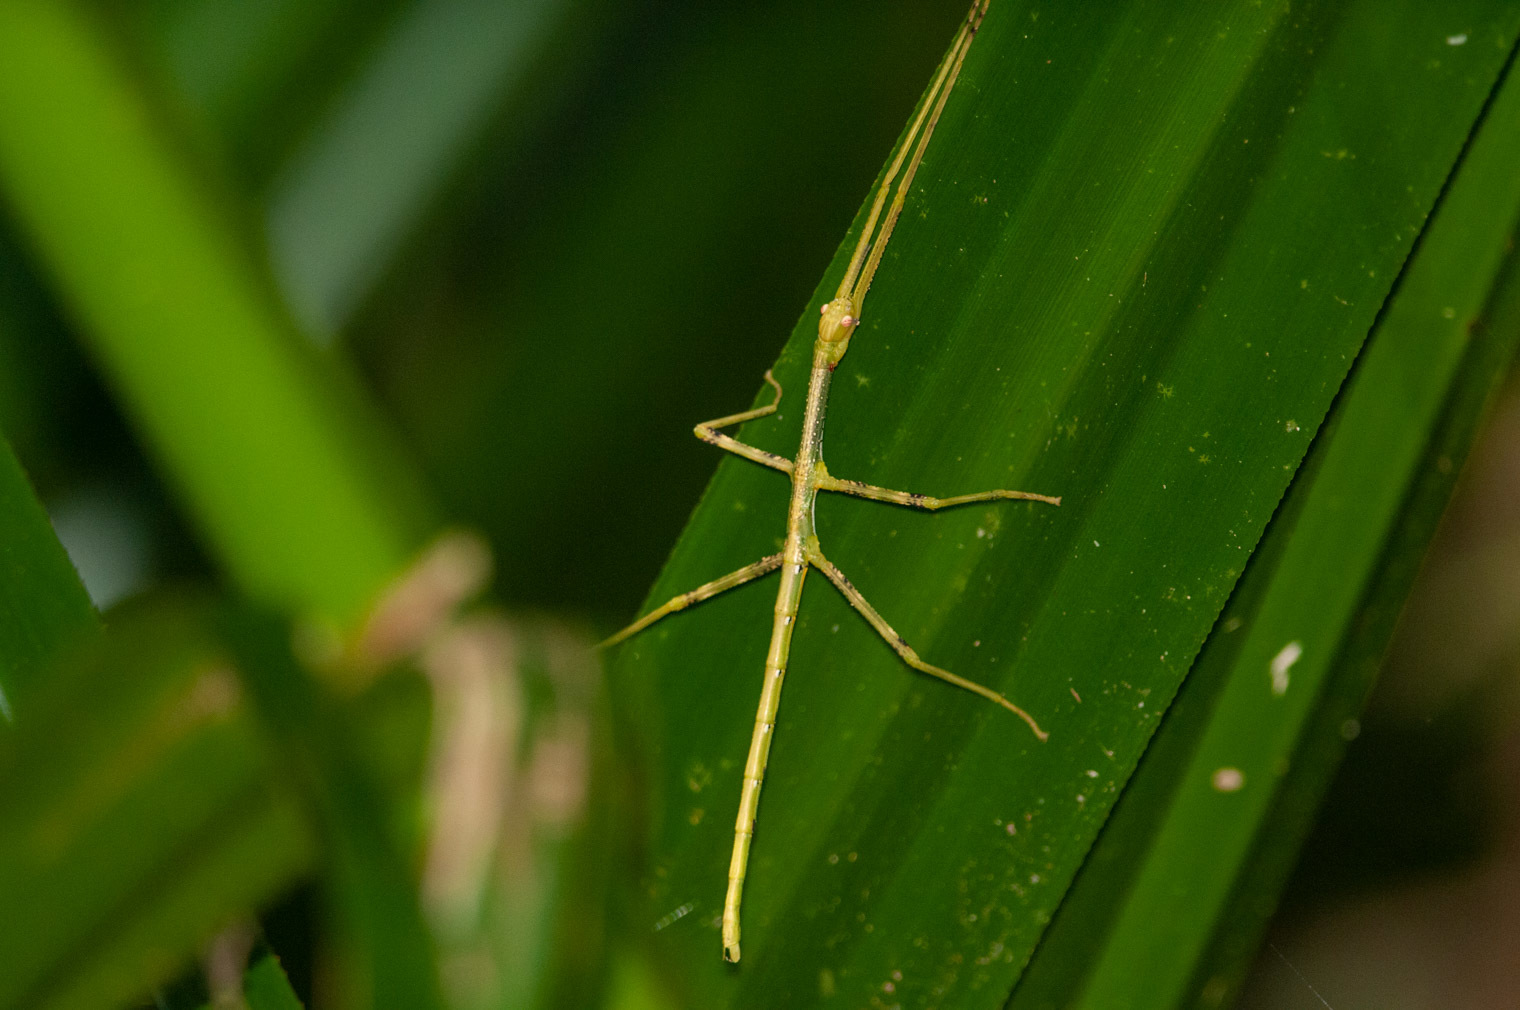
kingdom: Animalia
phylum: Arthropoda
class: Insecta
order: Phasmida
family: Phasmatidae
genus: Anchiale
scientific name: Anchiale briareus
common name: Strong stick insect
